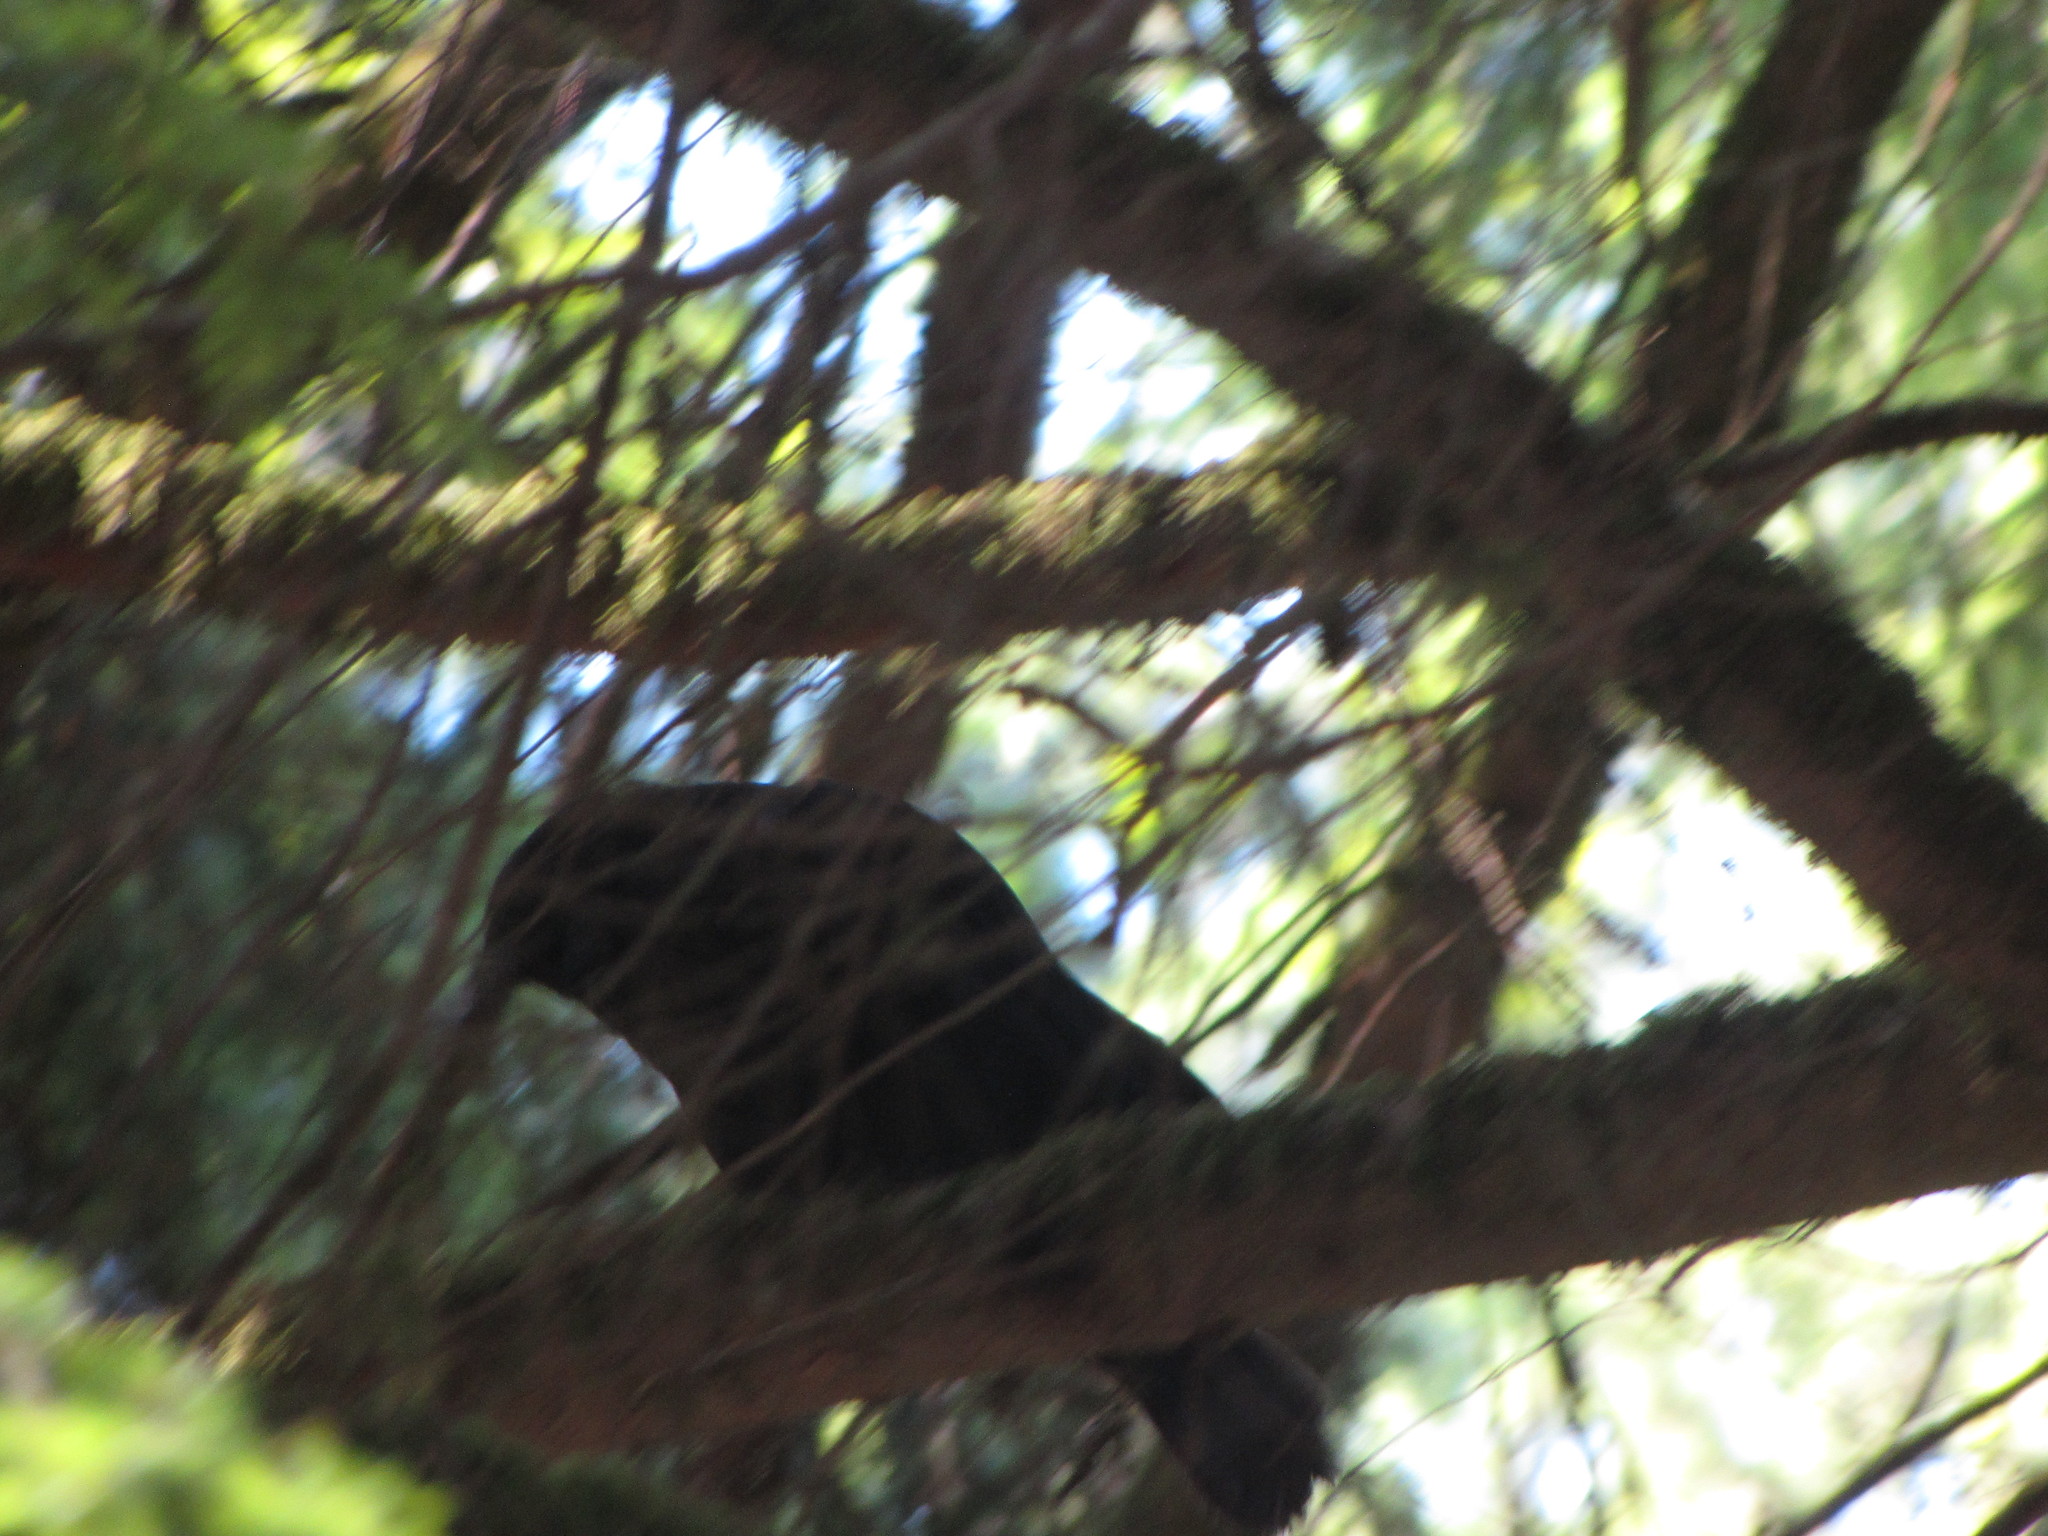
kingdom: Animalia
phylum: Chordata
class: Aves
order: Passeriformes
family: Corvidae
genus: Corvus
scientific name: Corvus brachyrhynchos
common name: American crow
